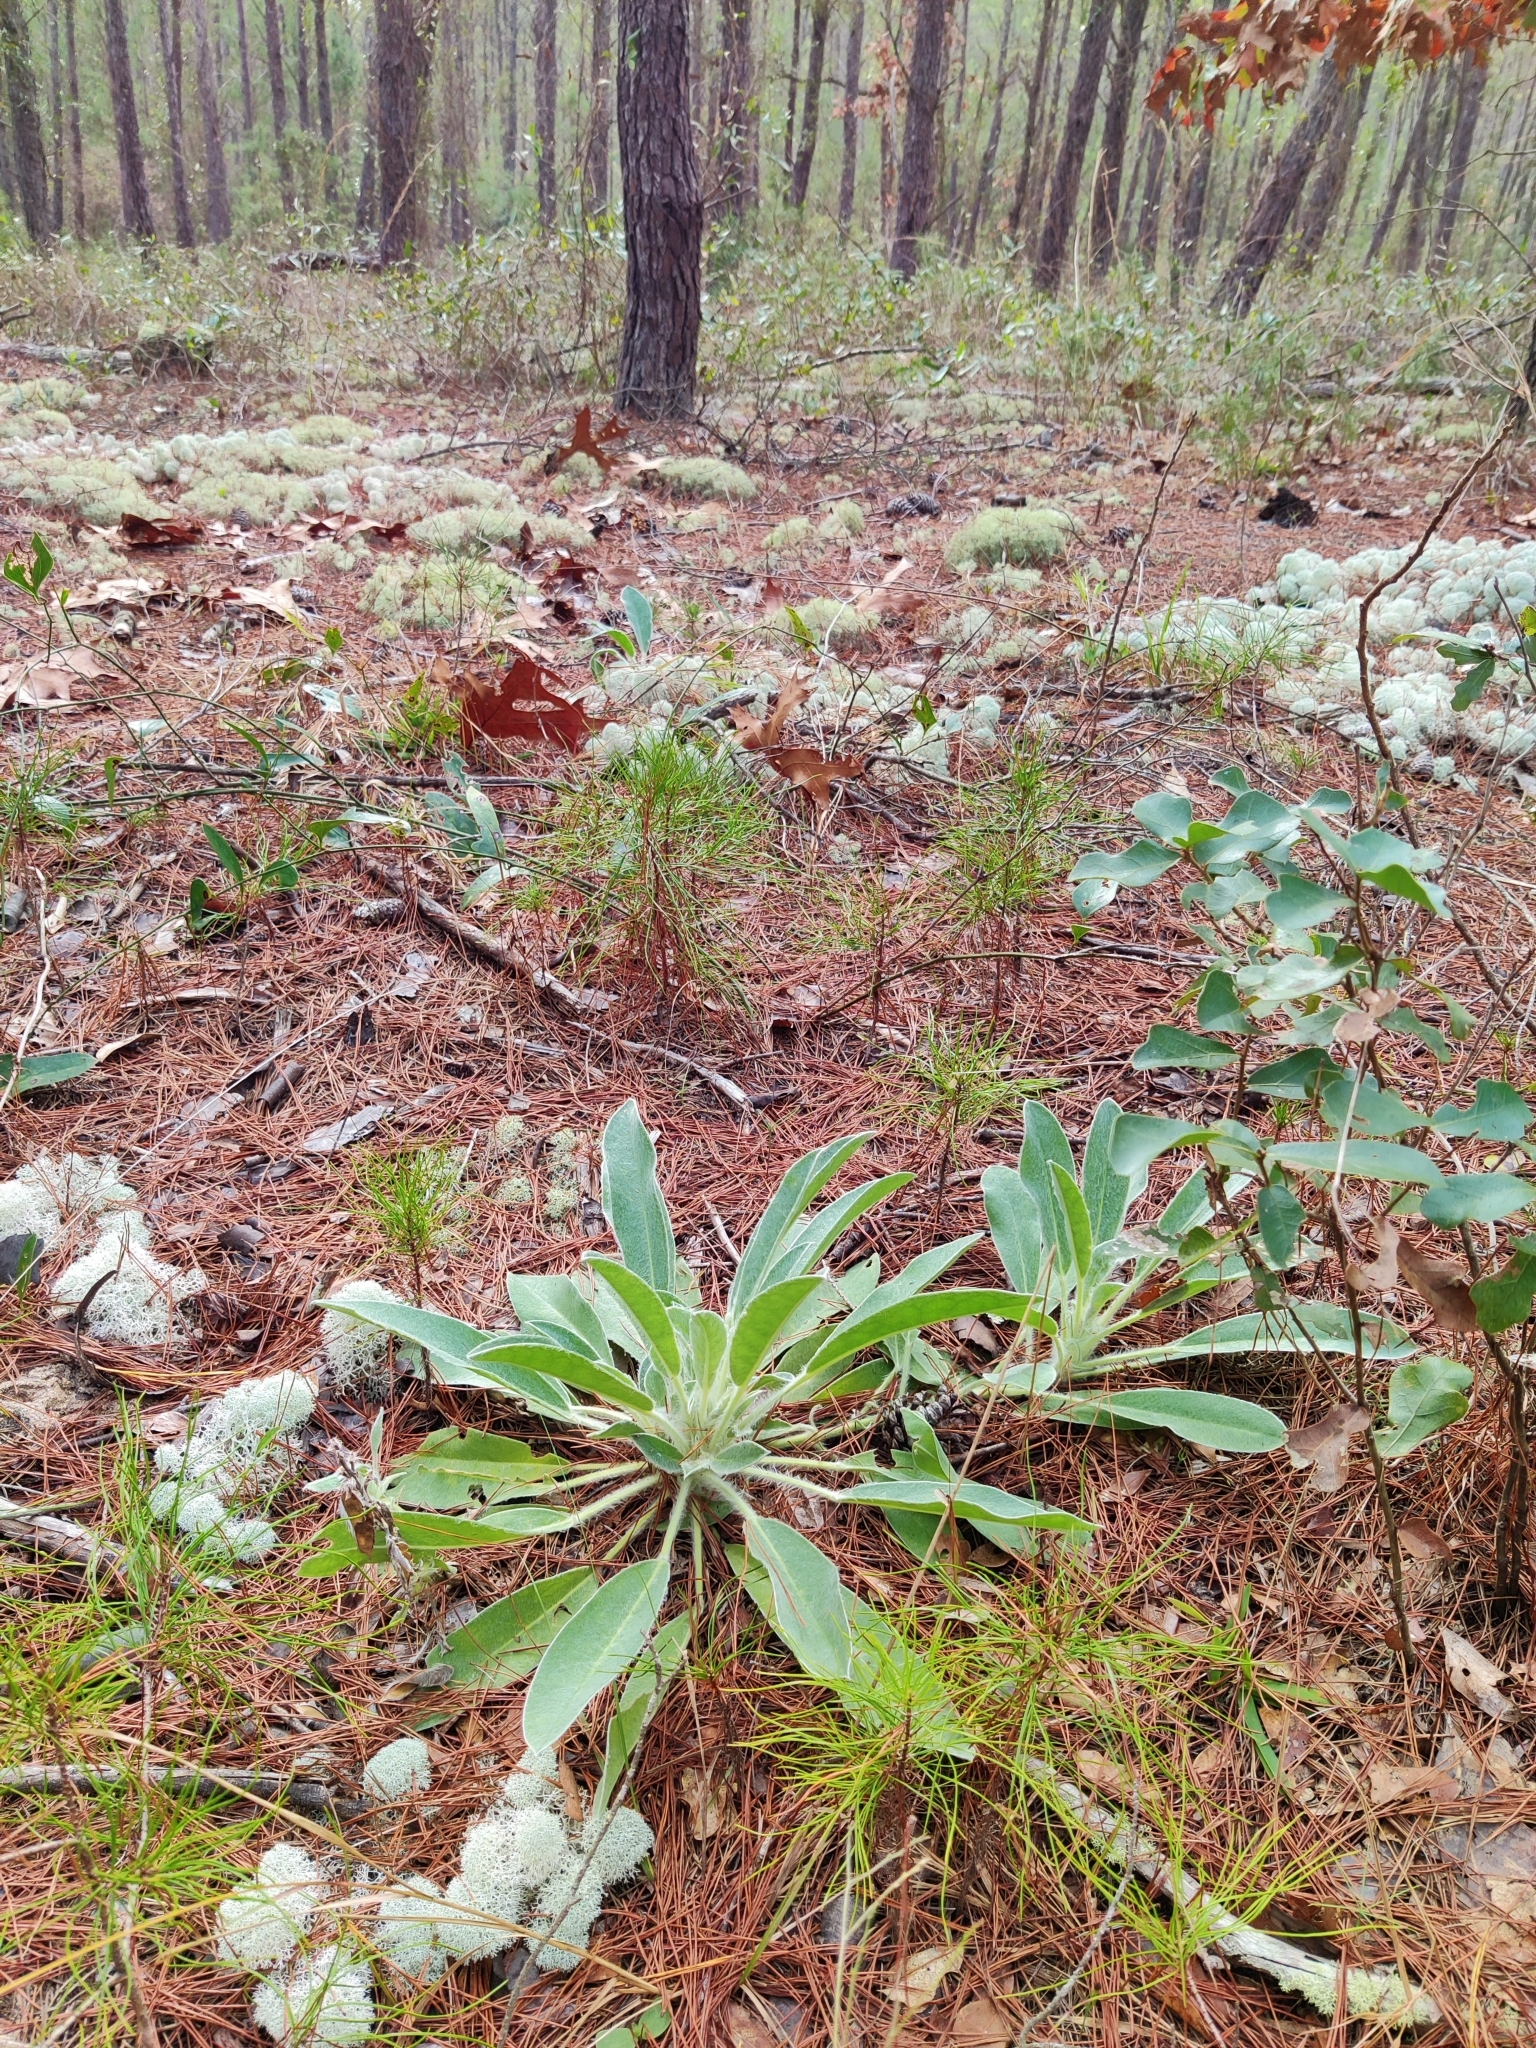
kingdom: Plantae
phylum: Tracheophyta
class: Magnoliopsida
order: Fabales
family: Fabaceae
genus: Lupinus
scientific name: Lupinus villosus
